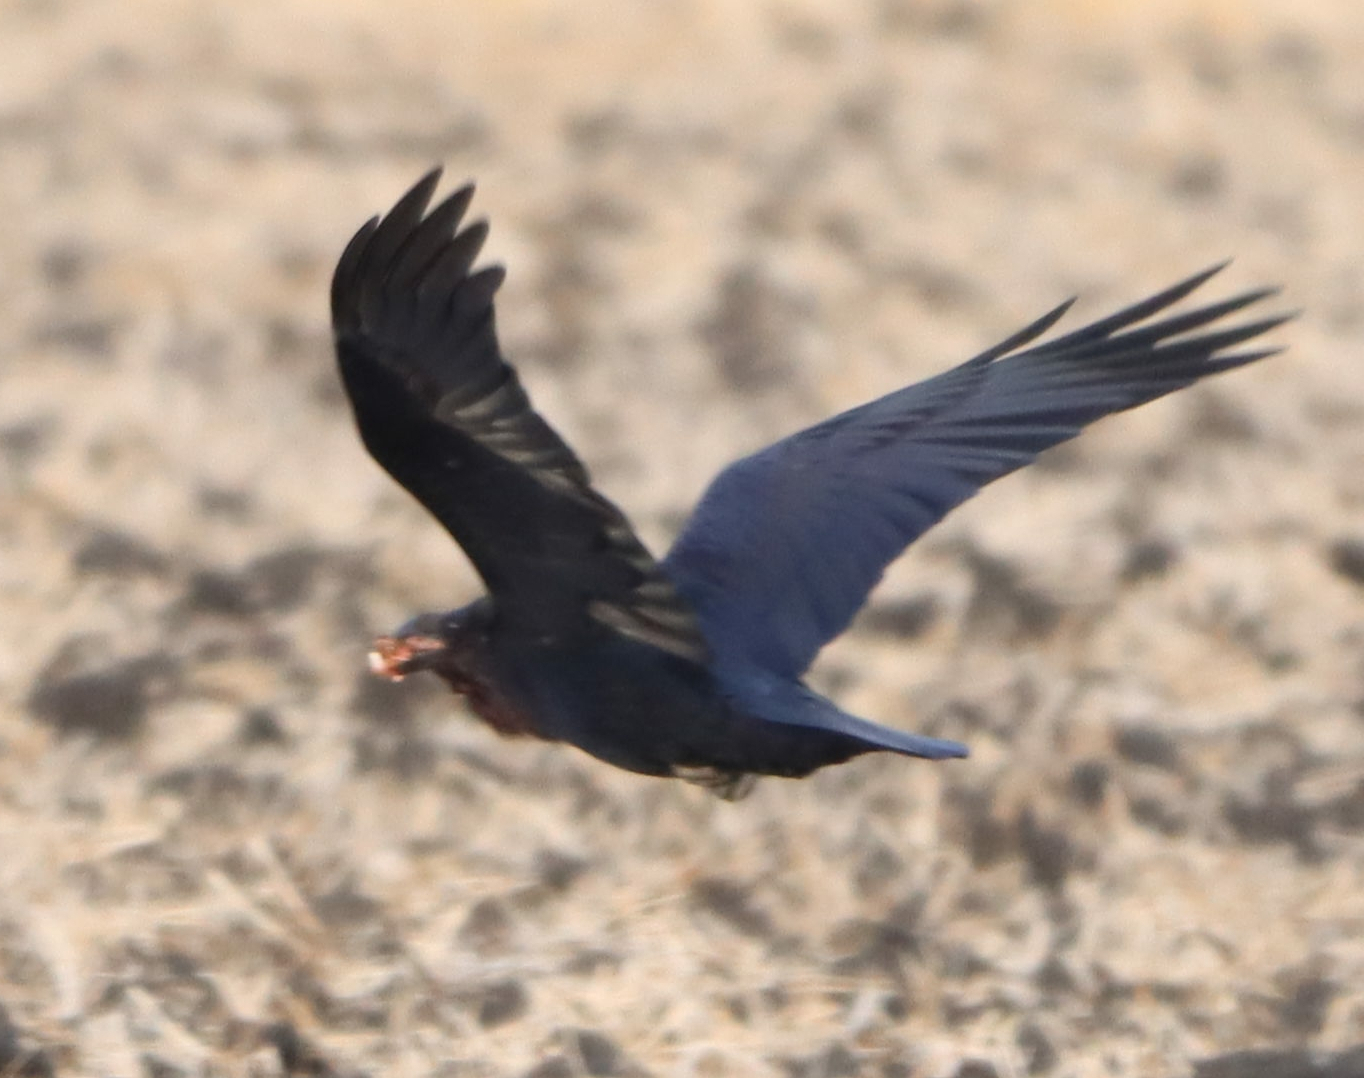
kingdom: Animalia
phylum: Chordata
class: Aves
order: Passeriformes
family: Corvidae
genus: Corvus
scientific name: Corvus corax
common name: Common raven
